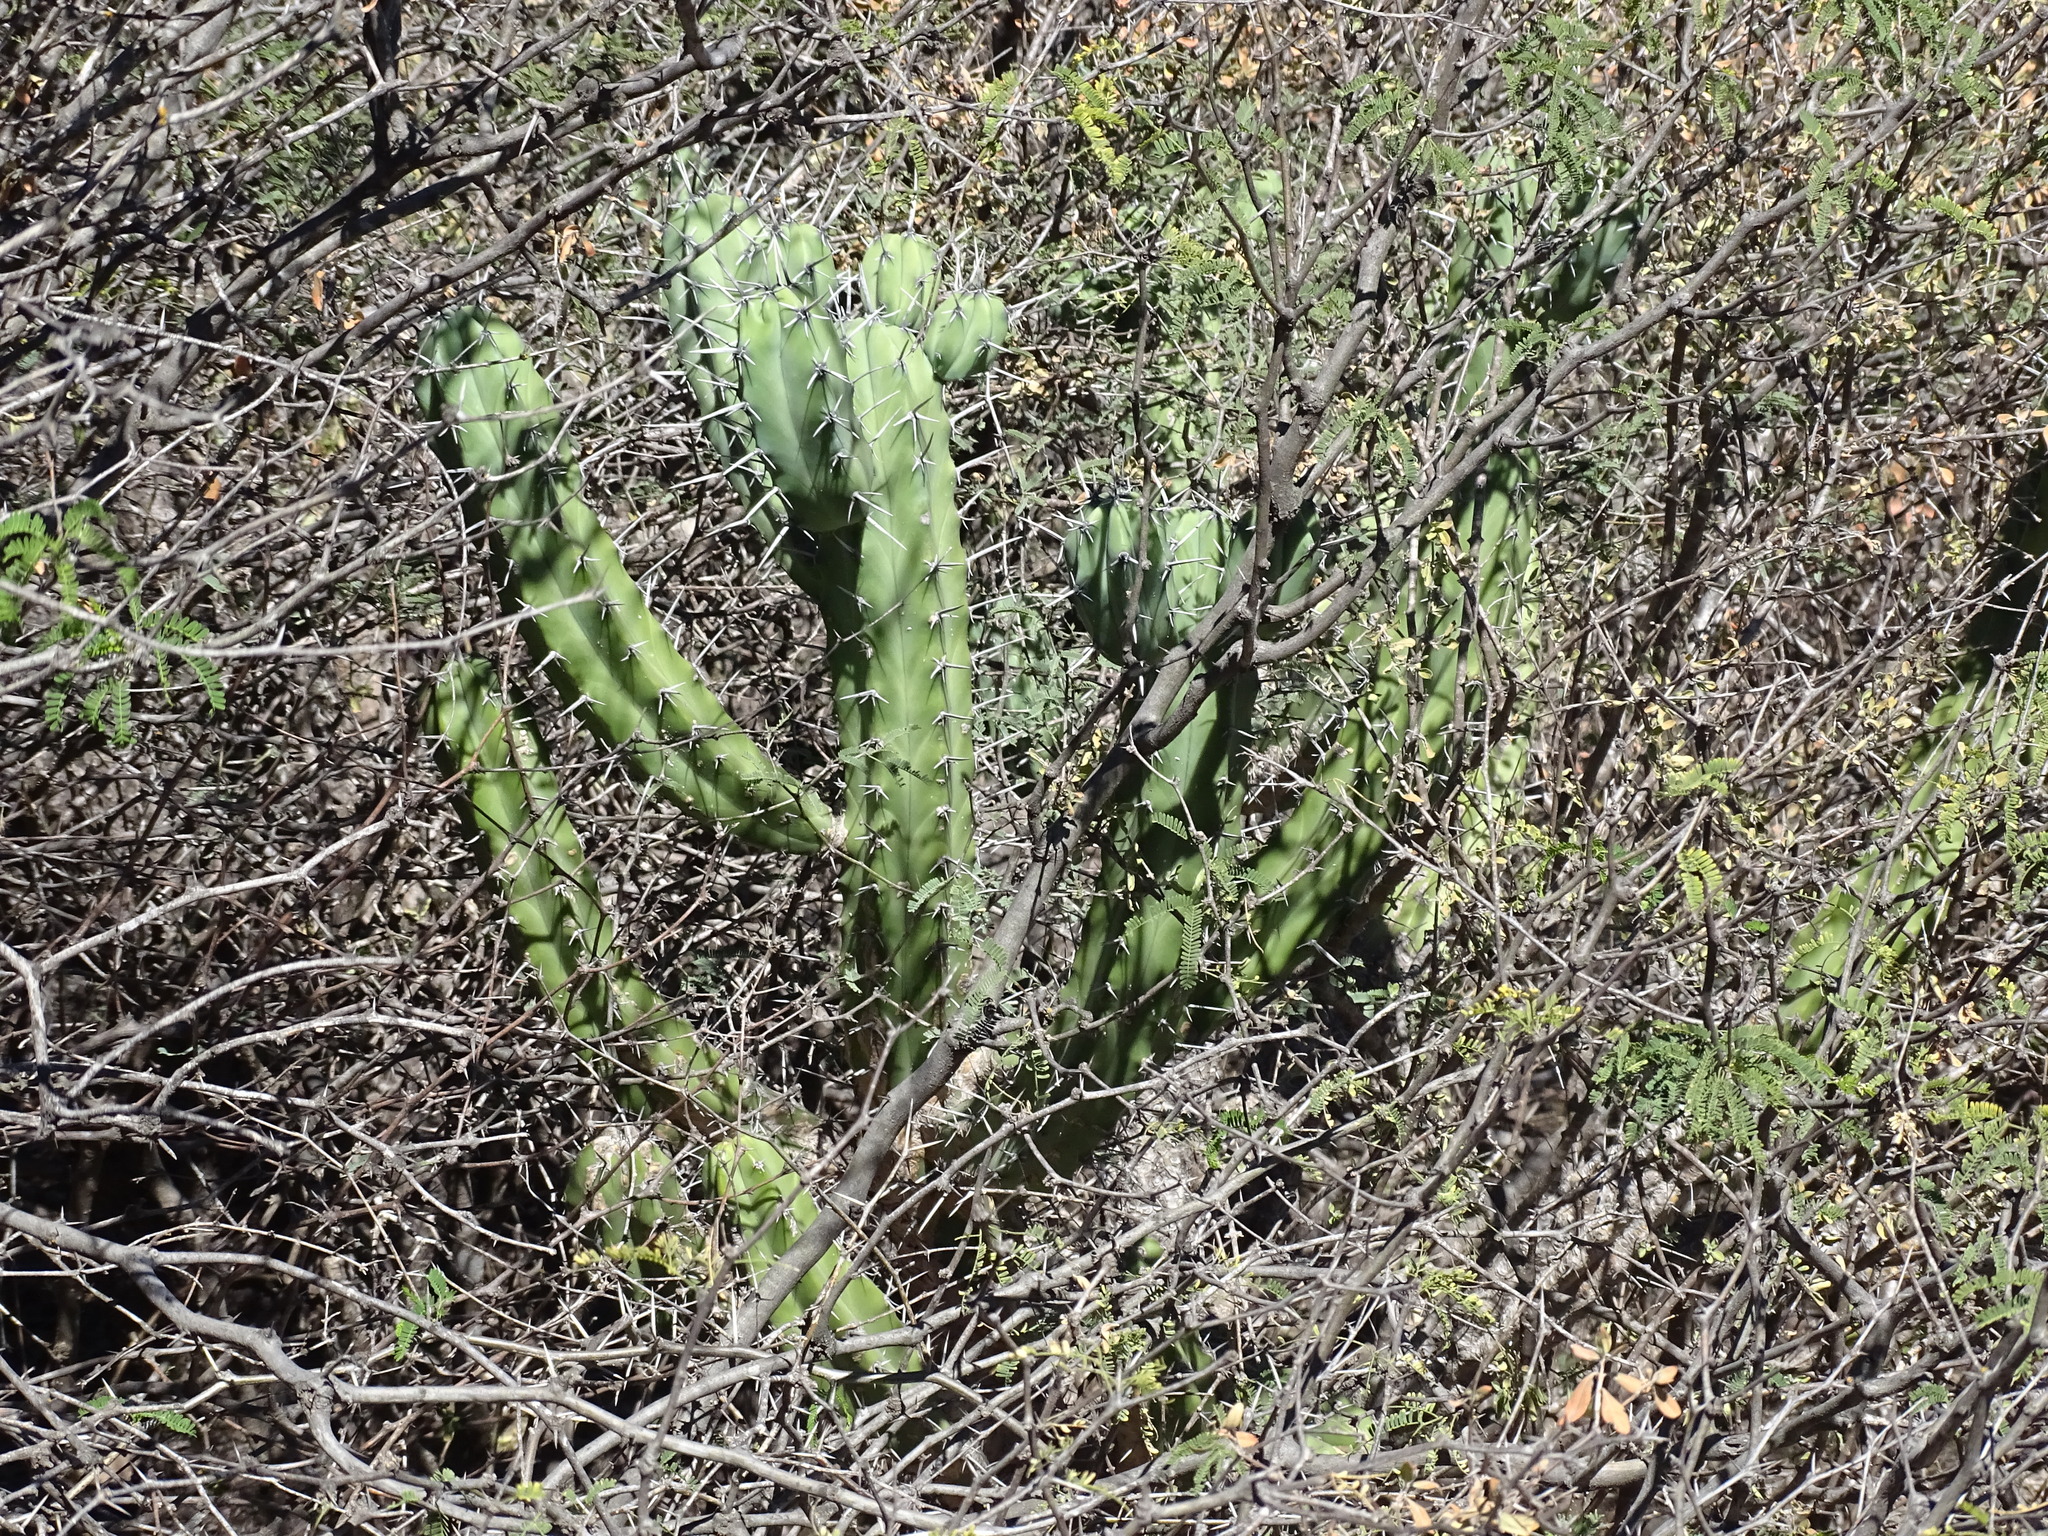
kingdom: Plantae
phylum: Tracheophyta
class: Magnoliopsida
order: Caryophyllales
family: Cactaceae
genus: Myrtillocactus
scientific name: Myrtillocactus geometrizans
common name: Bilberry cactus
